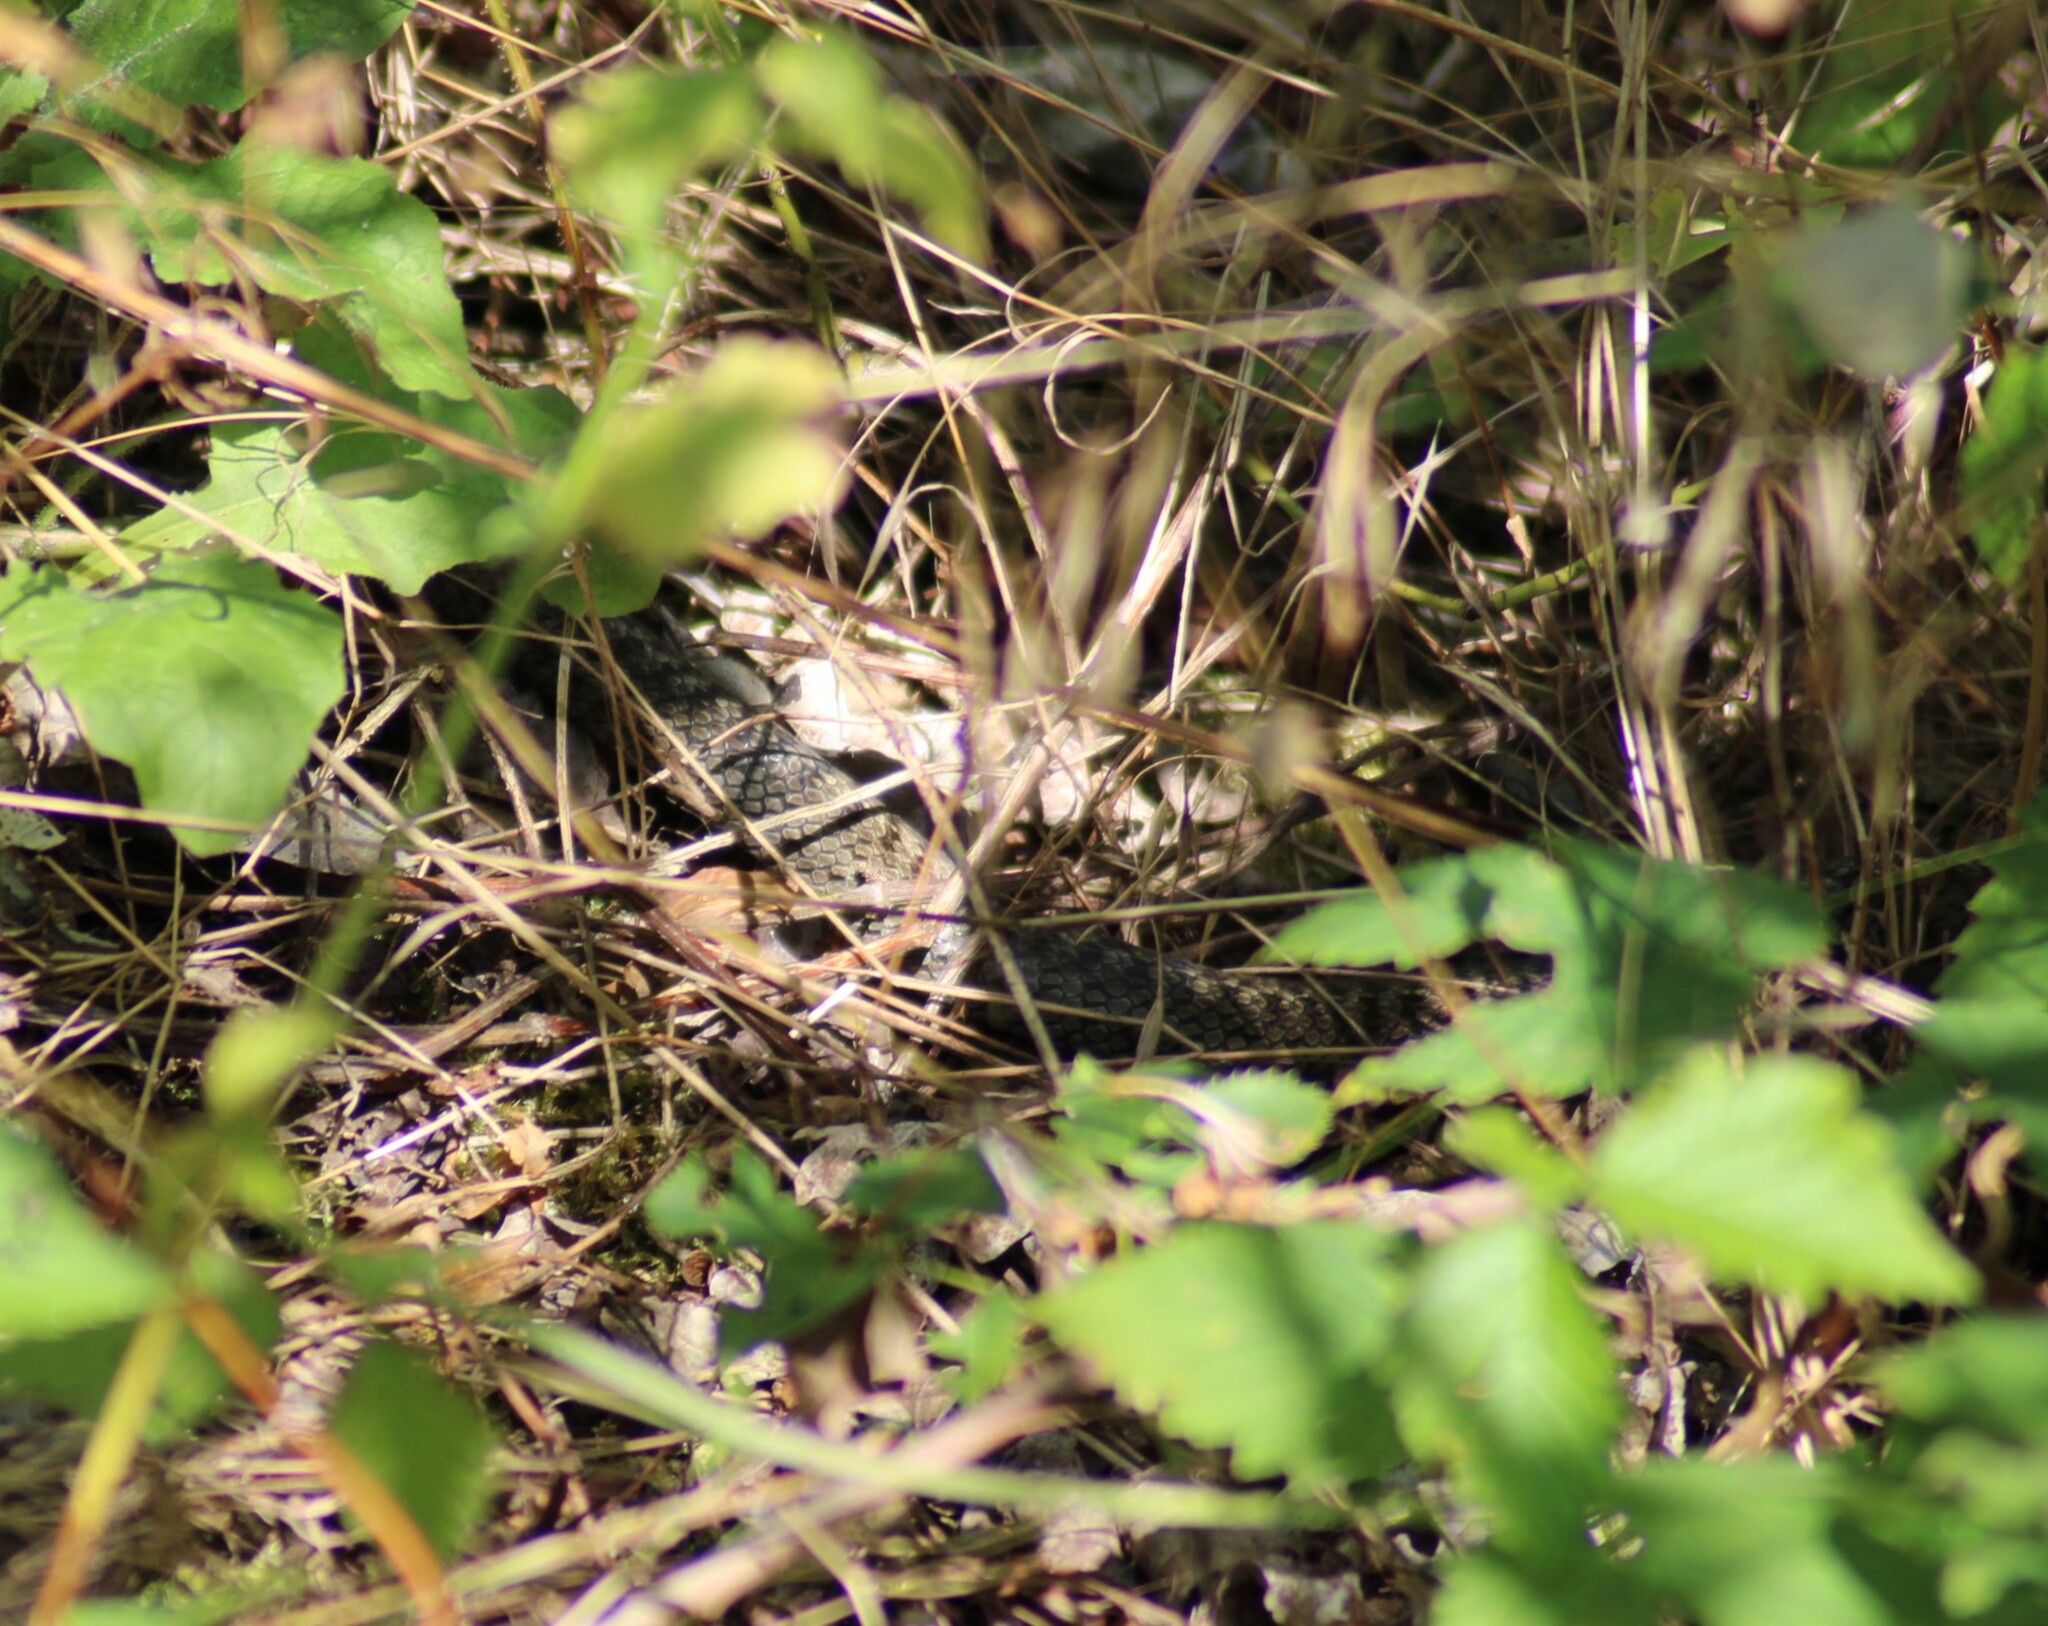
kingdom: Animalia
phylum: Chordata
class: Squamata
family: Colubridae
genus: Coronella
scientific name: Coronella austriaca
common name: Smooth snake
